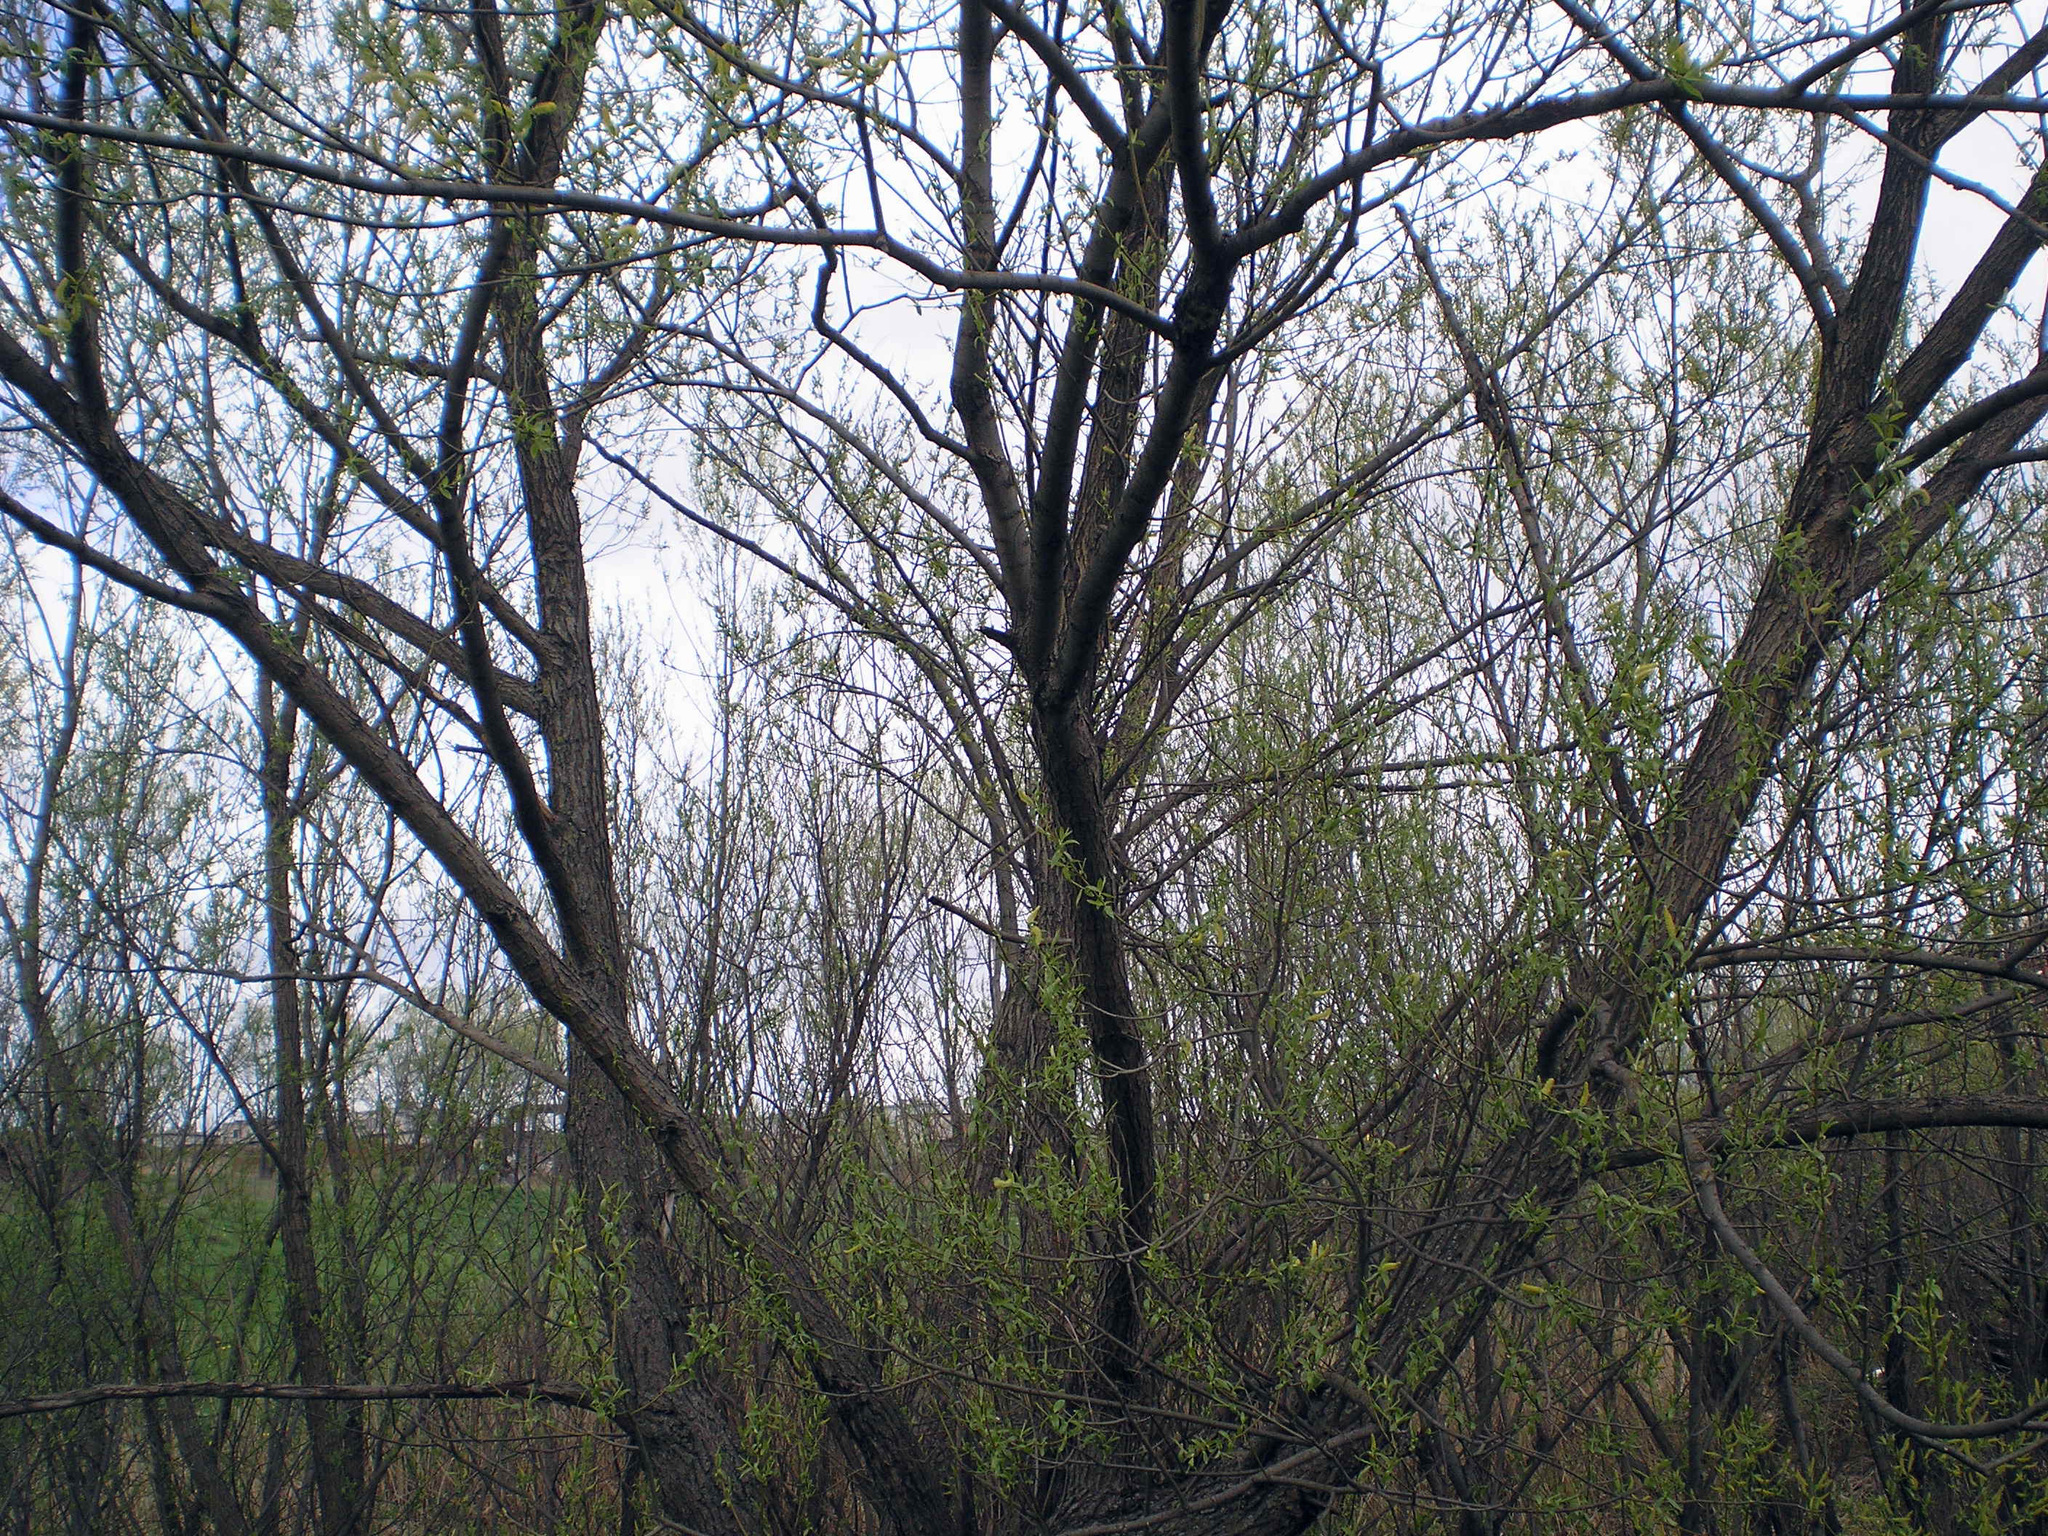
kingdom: Plantae
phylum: Tracheophyta
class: Magnoliopsida
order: Malpighiales
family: Salicaceae
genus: Salix
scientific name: Salix triandra
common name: Almond willow
